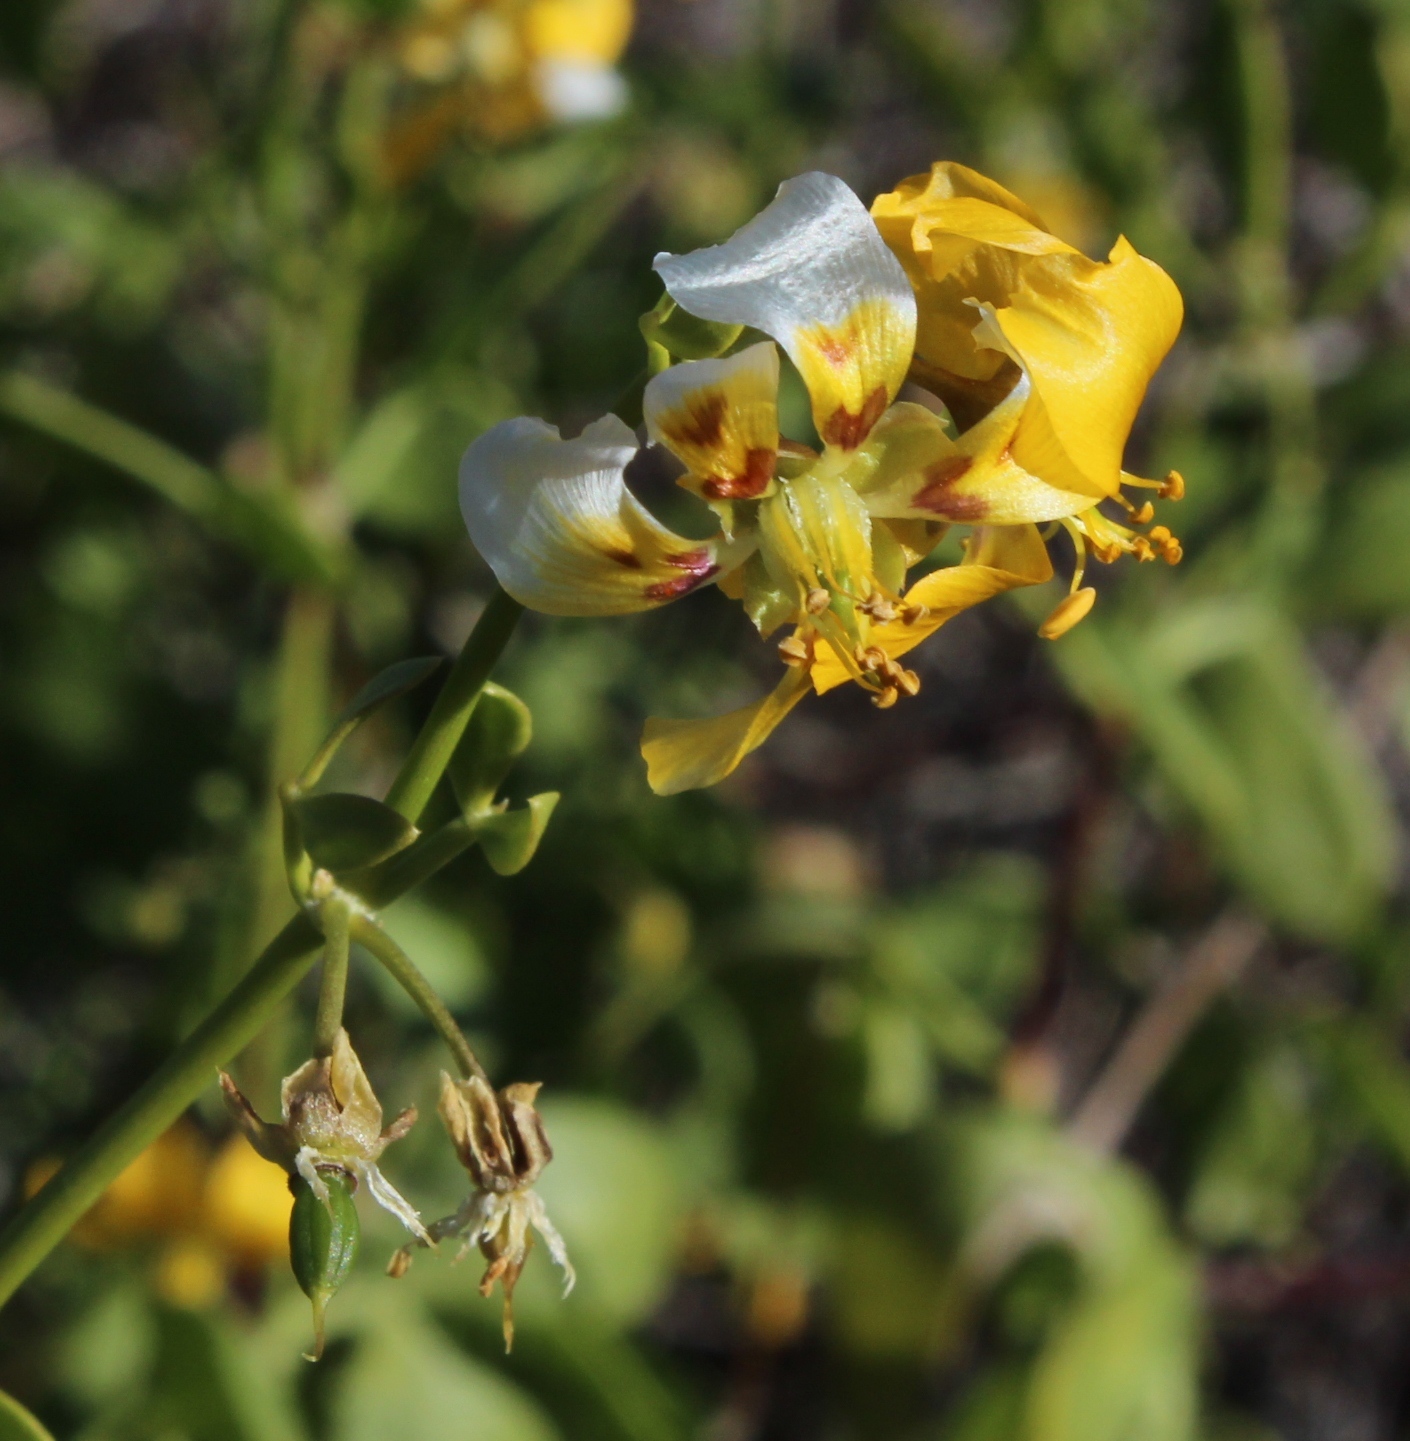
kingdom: Plantae
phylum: Tracheophyta
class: Magnoliopsida
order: Zygophyllales
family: Zygophyllaceae
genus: Roepera
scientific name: Roepera foetida
